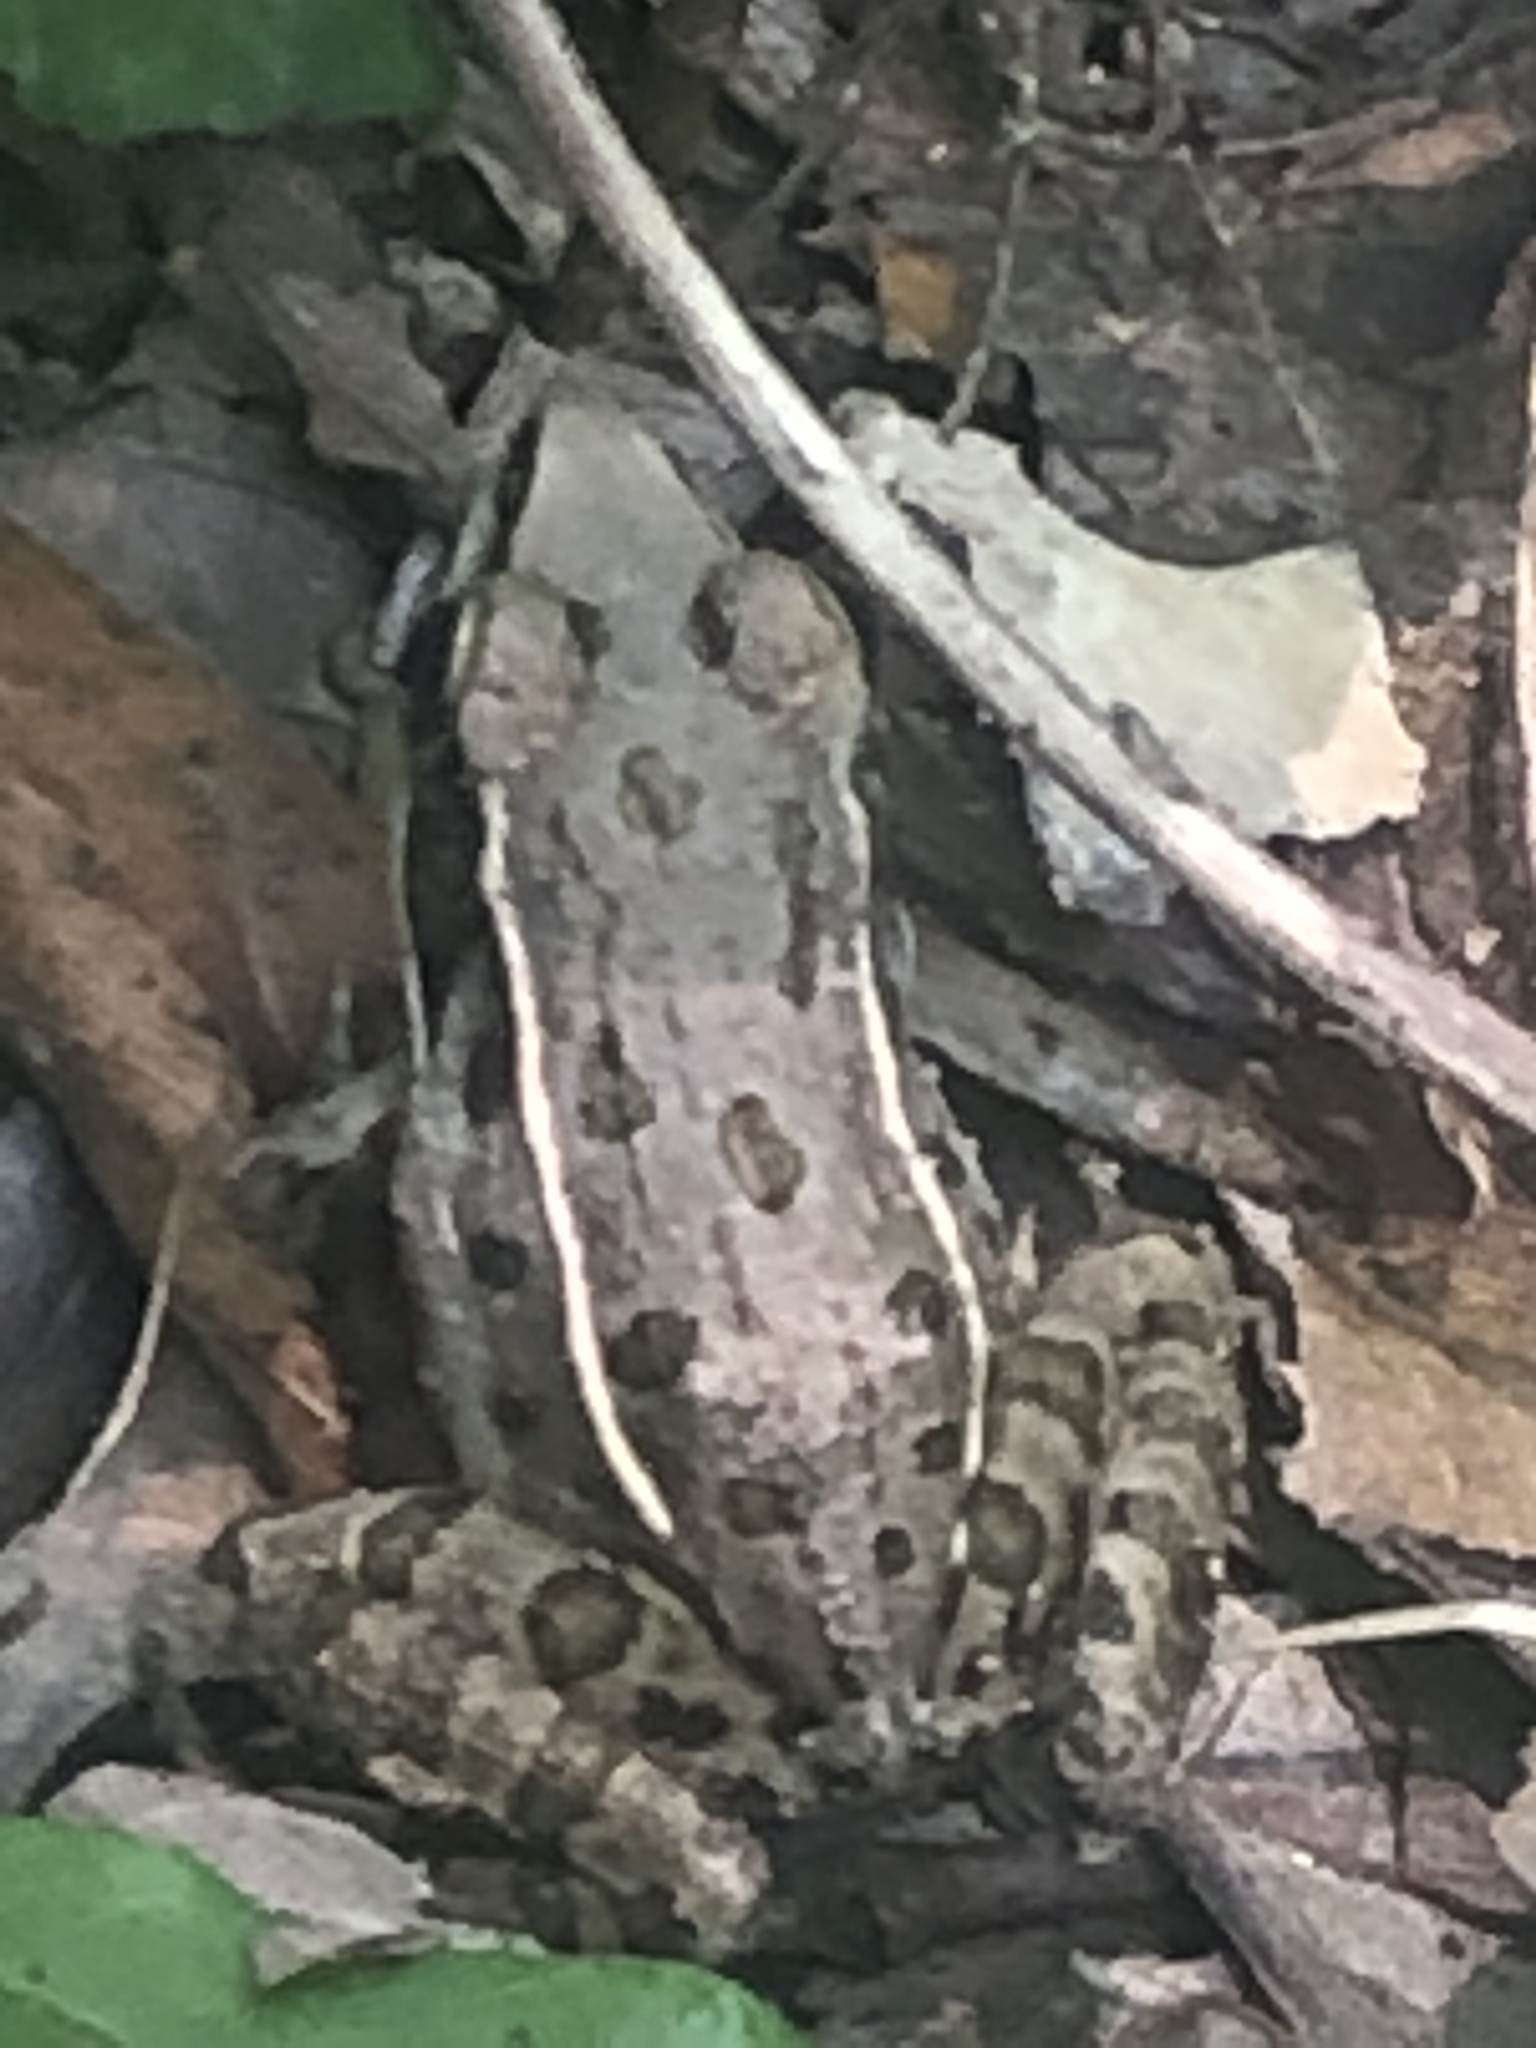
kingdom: Animalia
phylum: Chordata
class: Amphibia
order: Anura
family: Ranidae
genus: Lithobates
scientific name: Lithobates sphenocephalus
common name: Southern leopard frog
